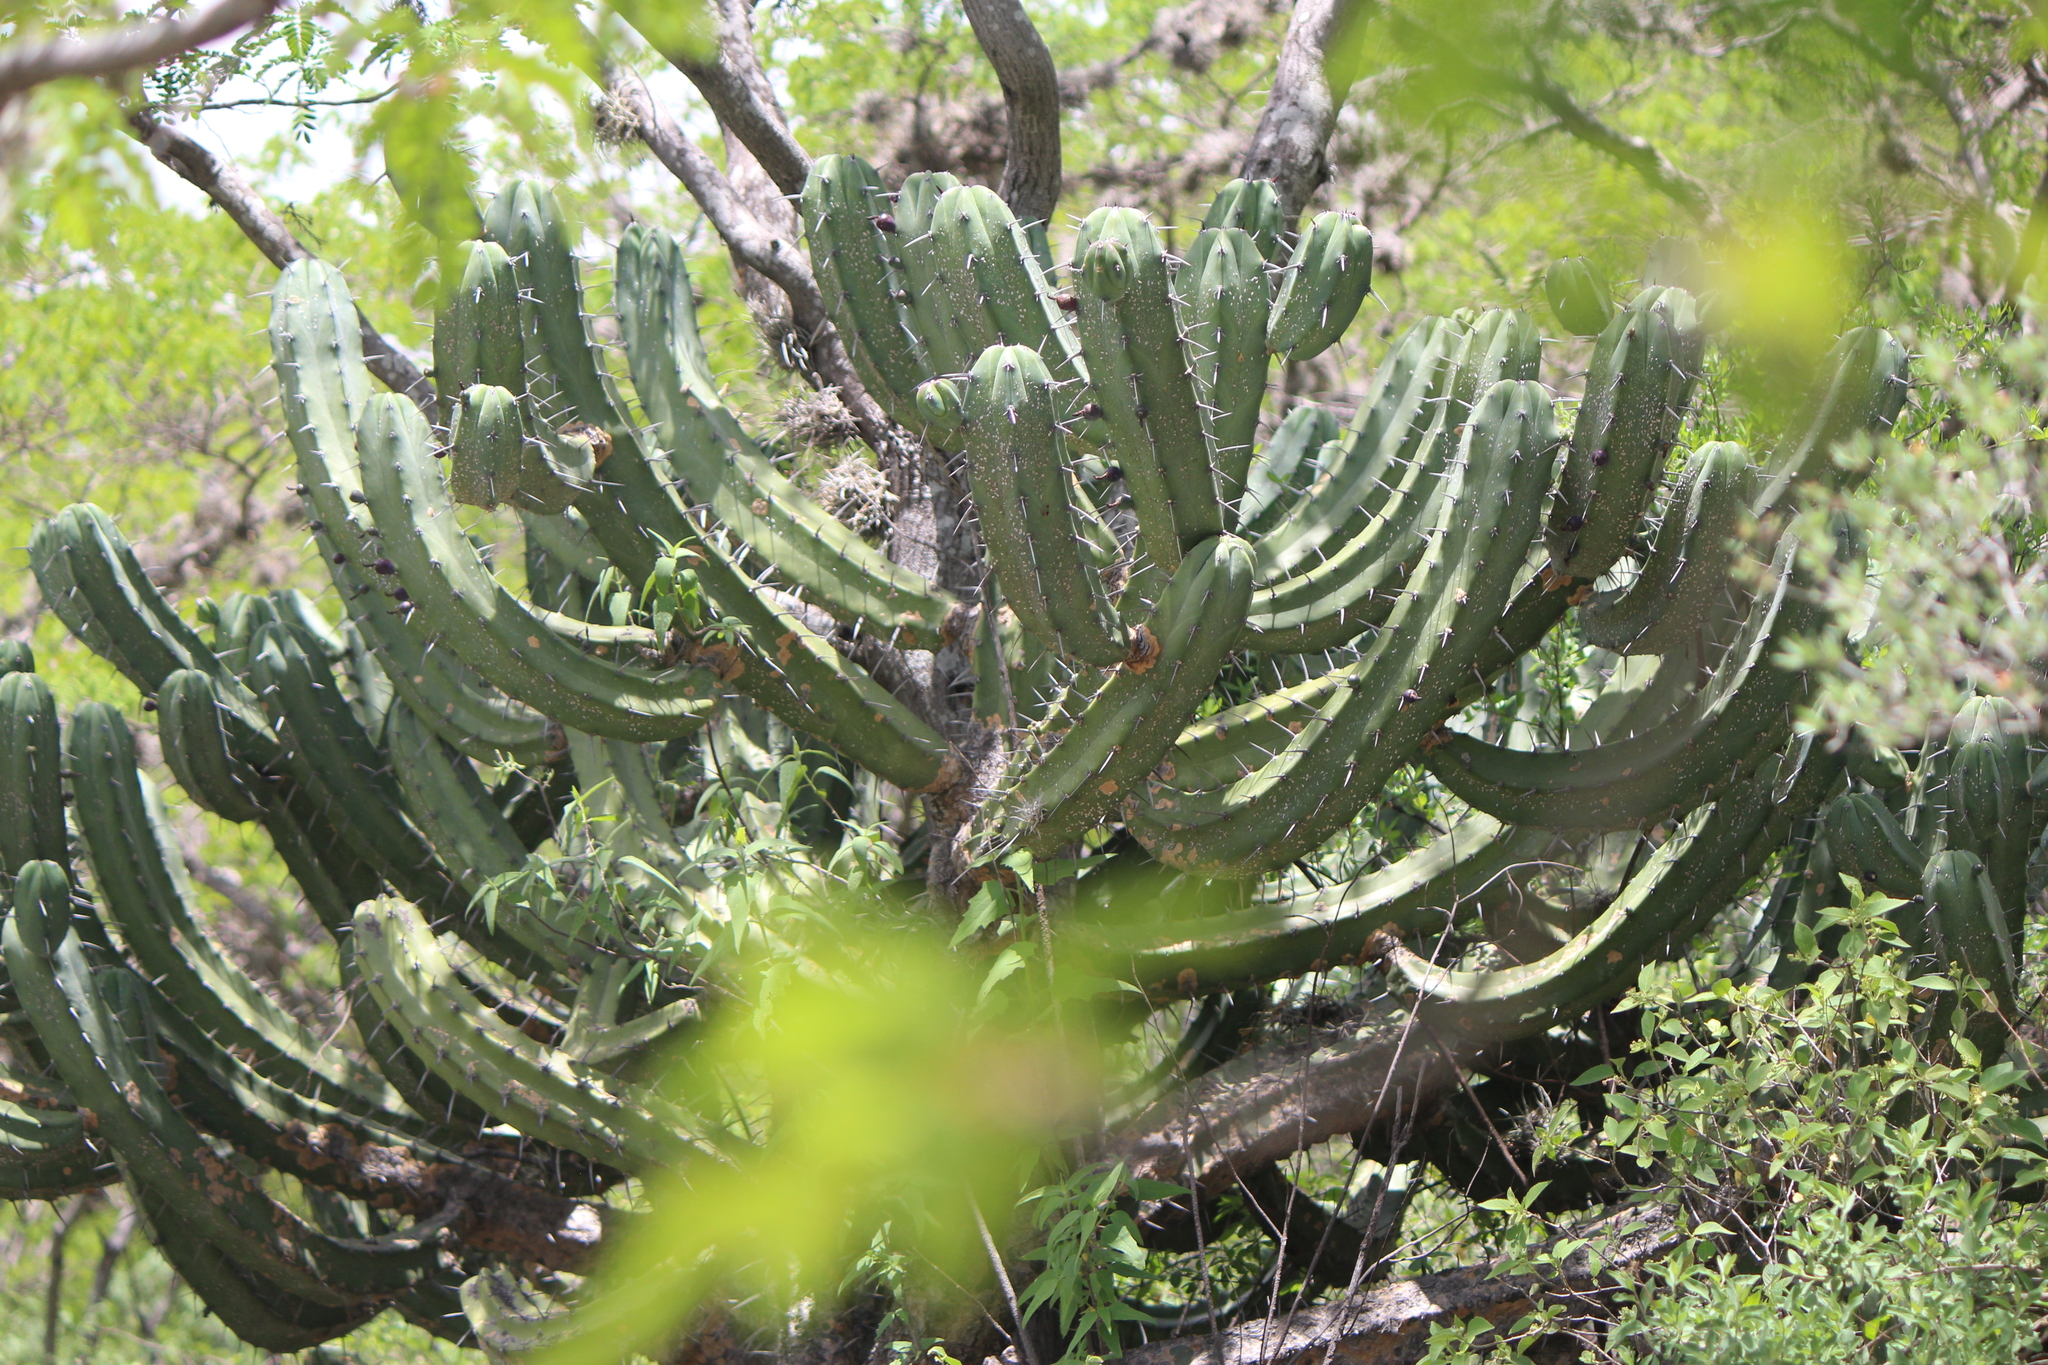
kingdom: Plantae
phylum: Tracheophyta
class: Magnoliopsida
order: Caryophyllales
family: Cactaceae
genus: Myrtillocactus
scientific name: Myrtillocactus geometrizans
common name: Bilberry cactus
